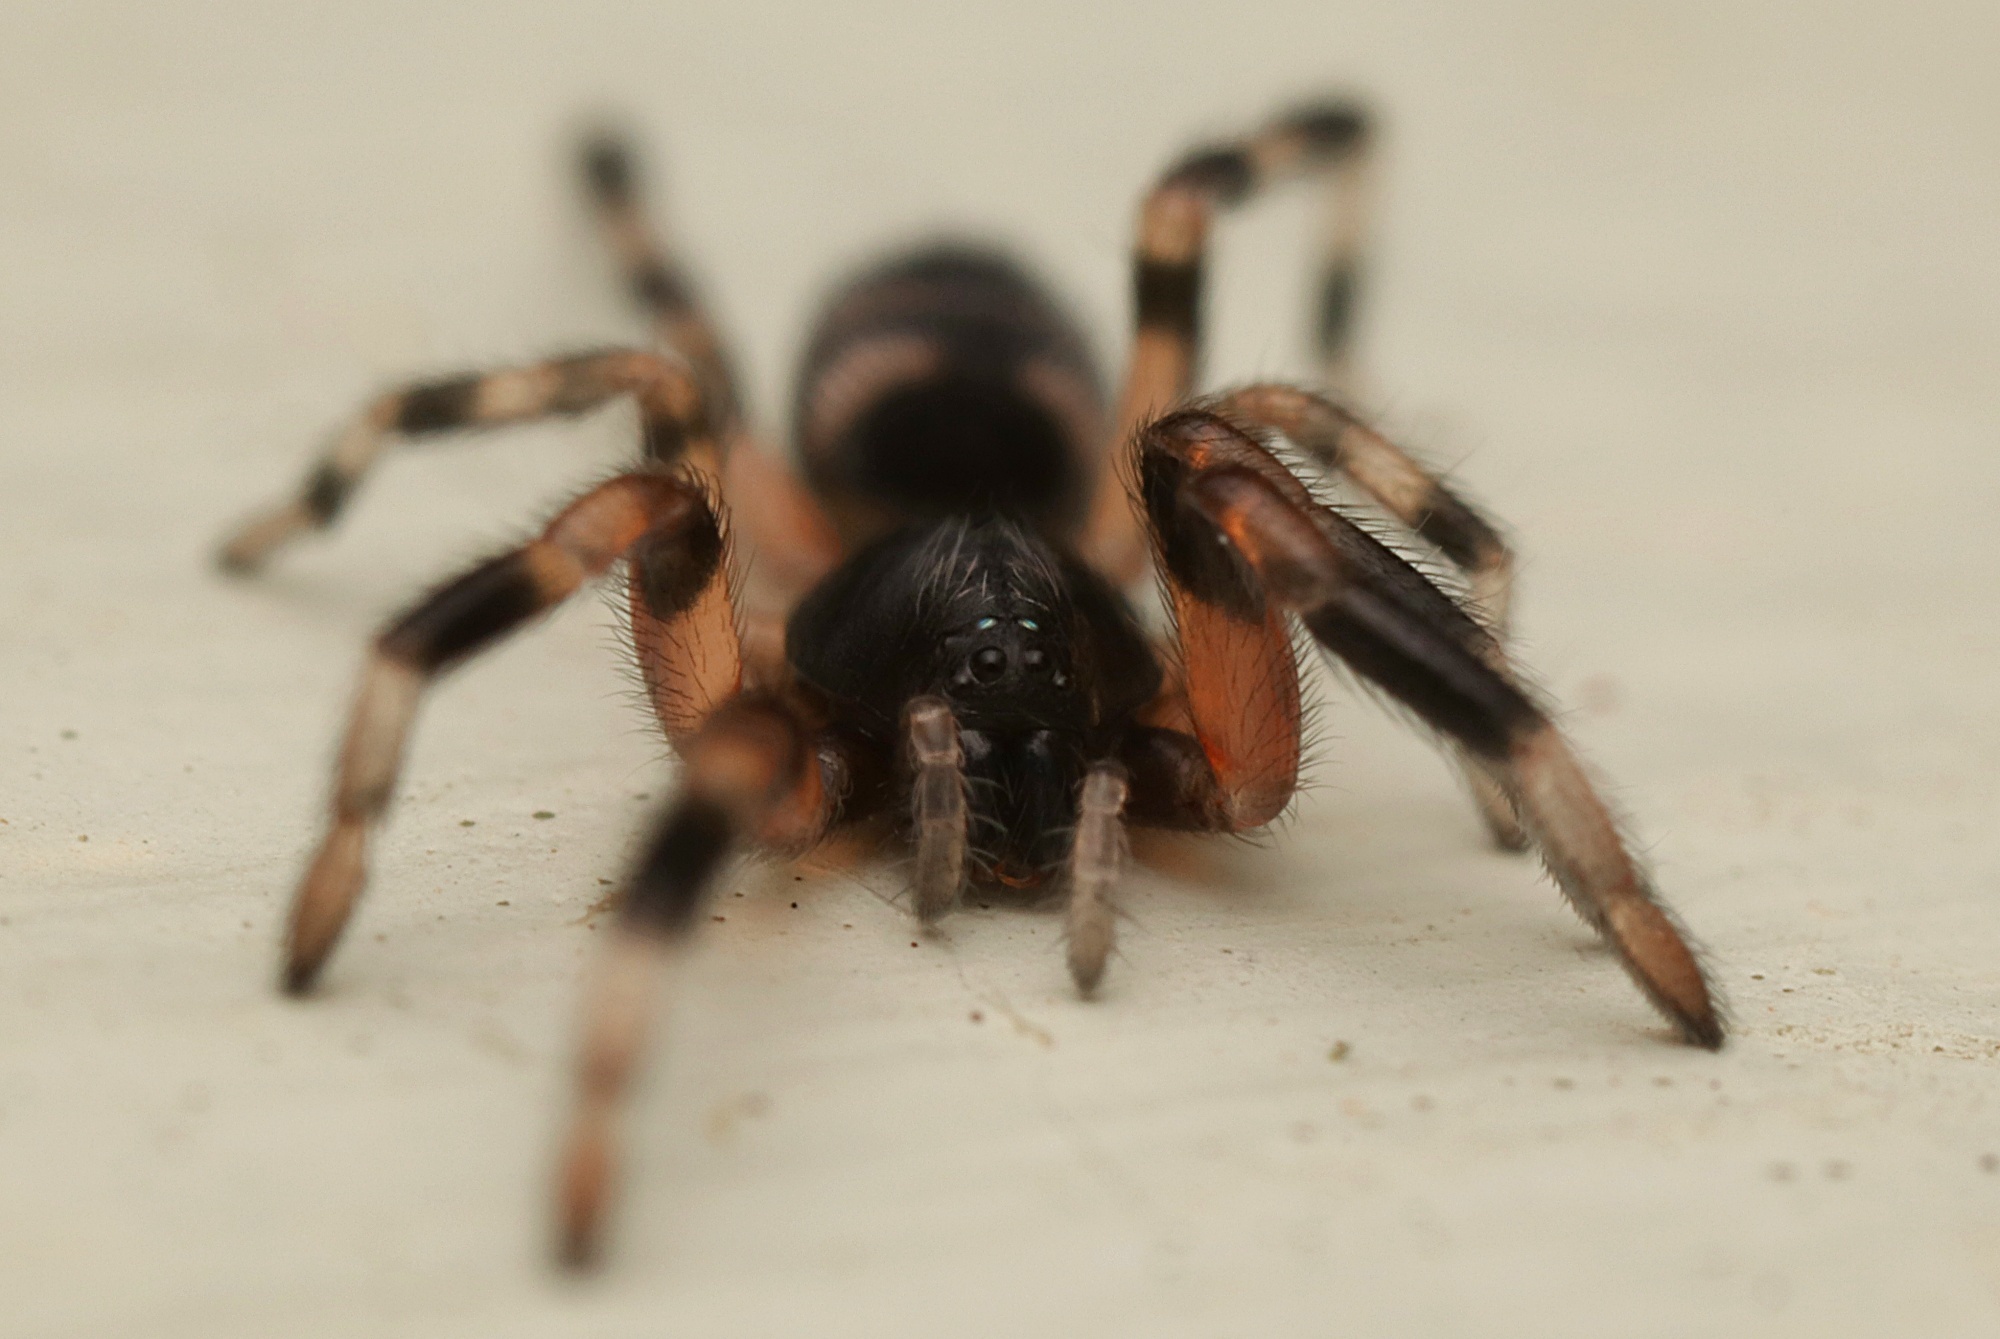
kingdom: Animalia
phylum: Arthropoda
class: Arachnida
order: Araneae
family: Lamponidae
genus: Lampona
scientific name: Lampona murina
